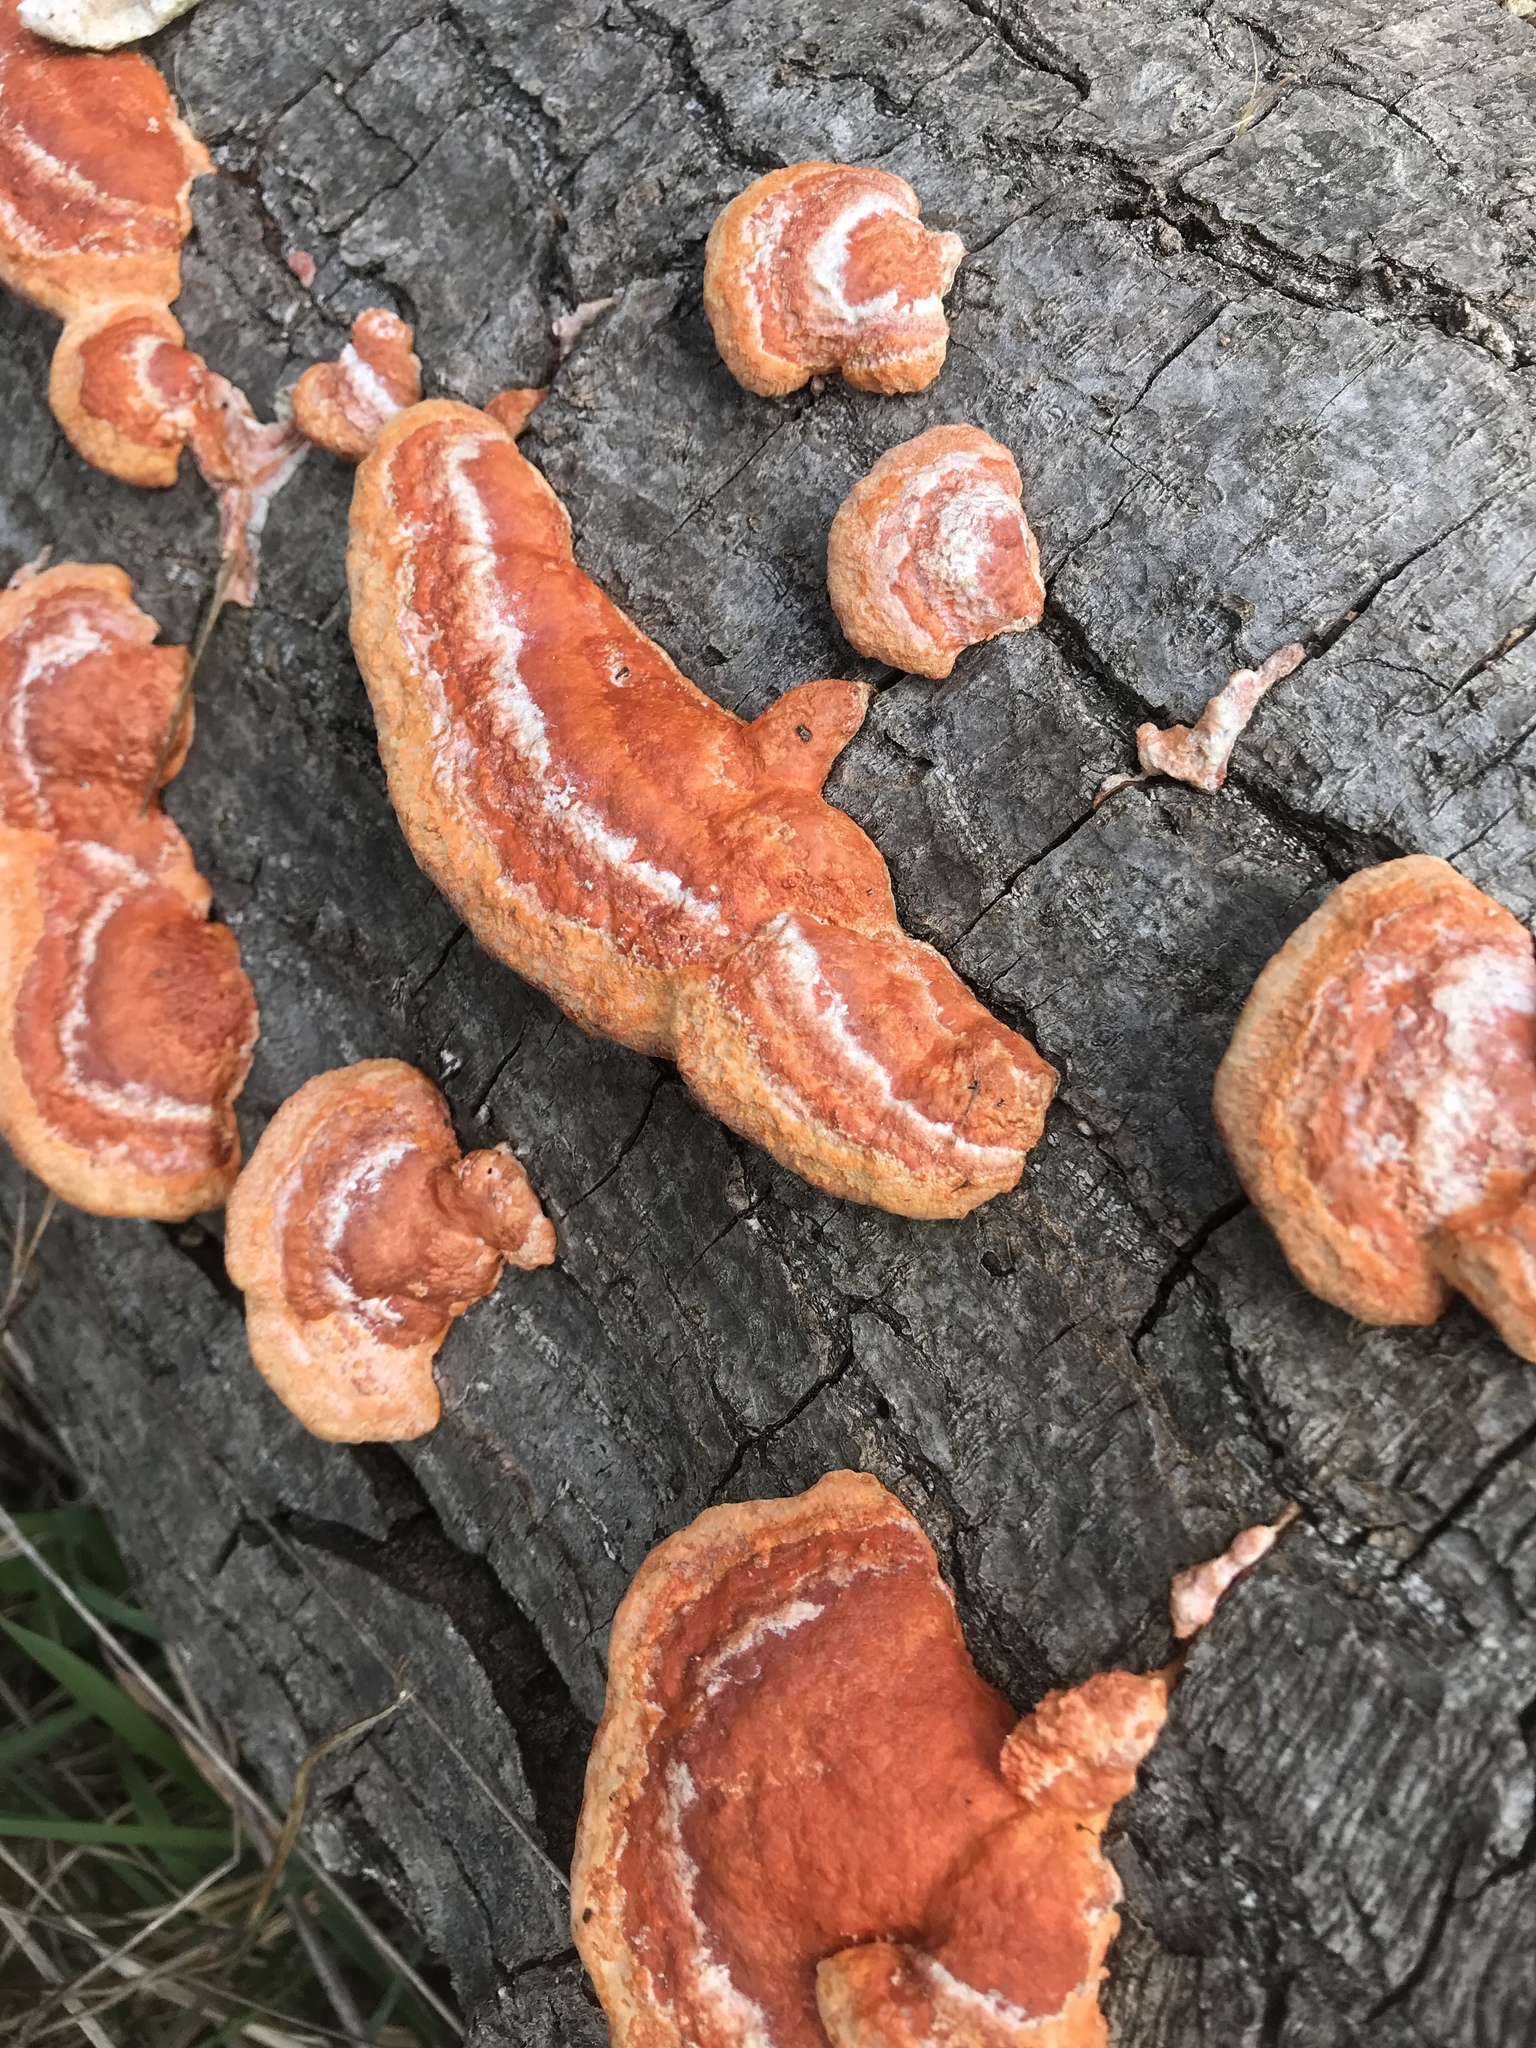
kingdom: Fungi
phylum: Basidiomycota
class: Agaricomycetes
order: Polyporales
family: Polyporaceae
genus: Trametes
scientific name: Trametes coccinea
